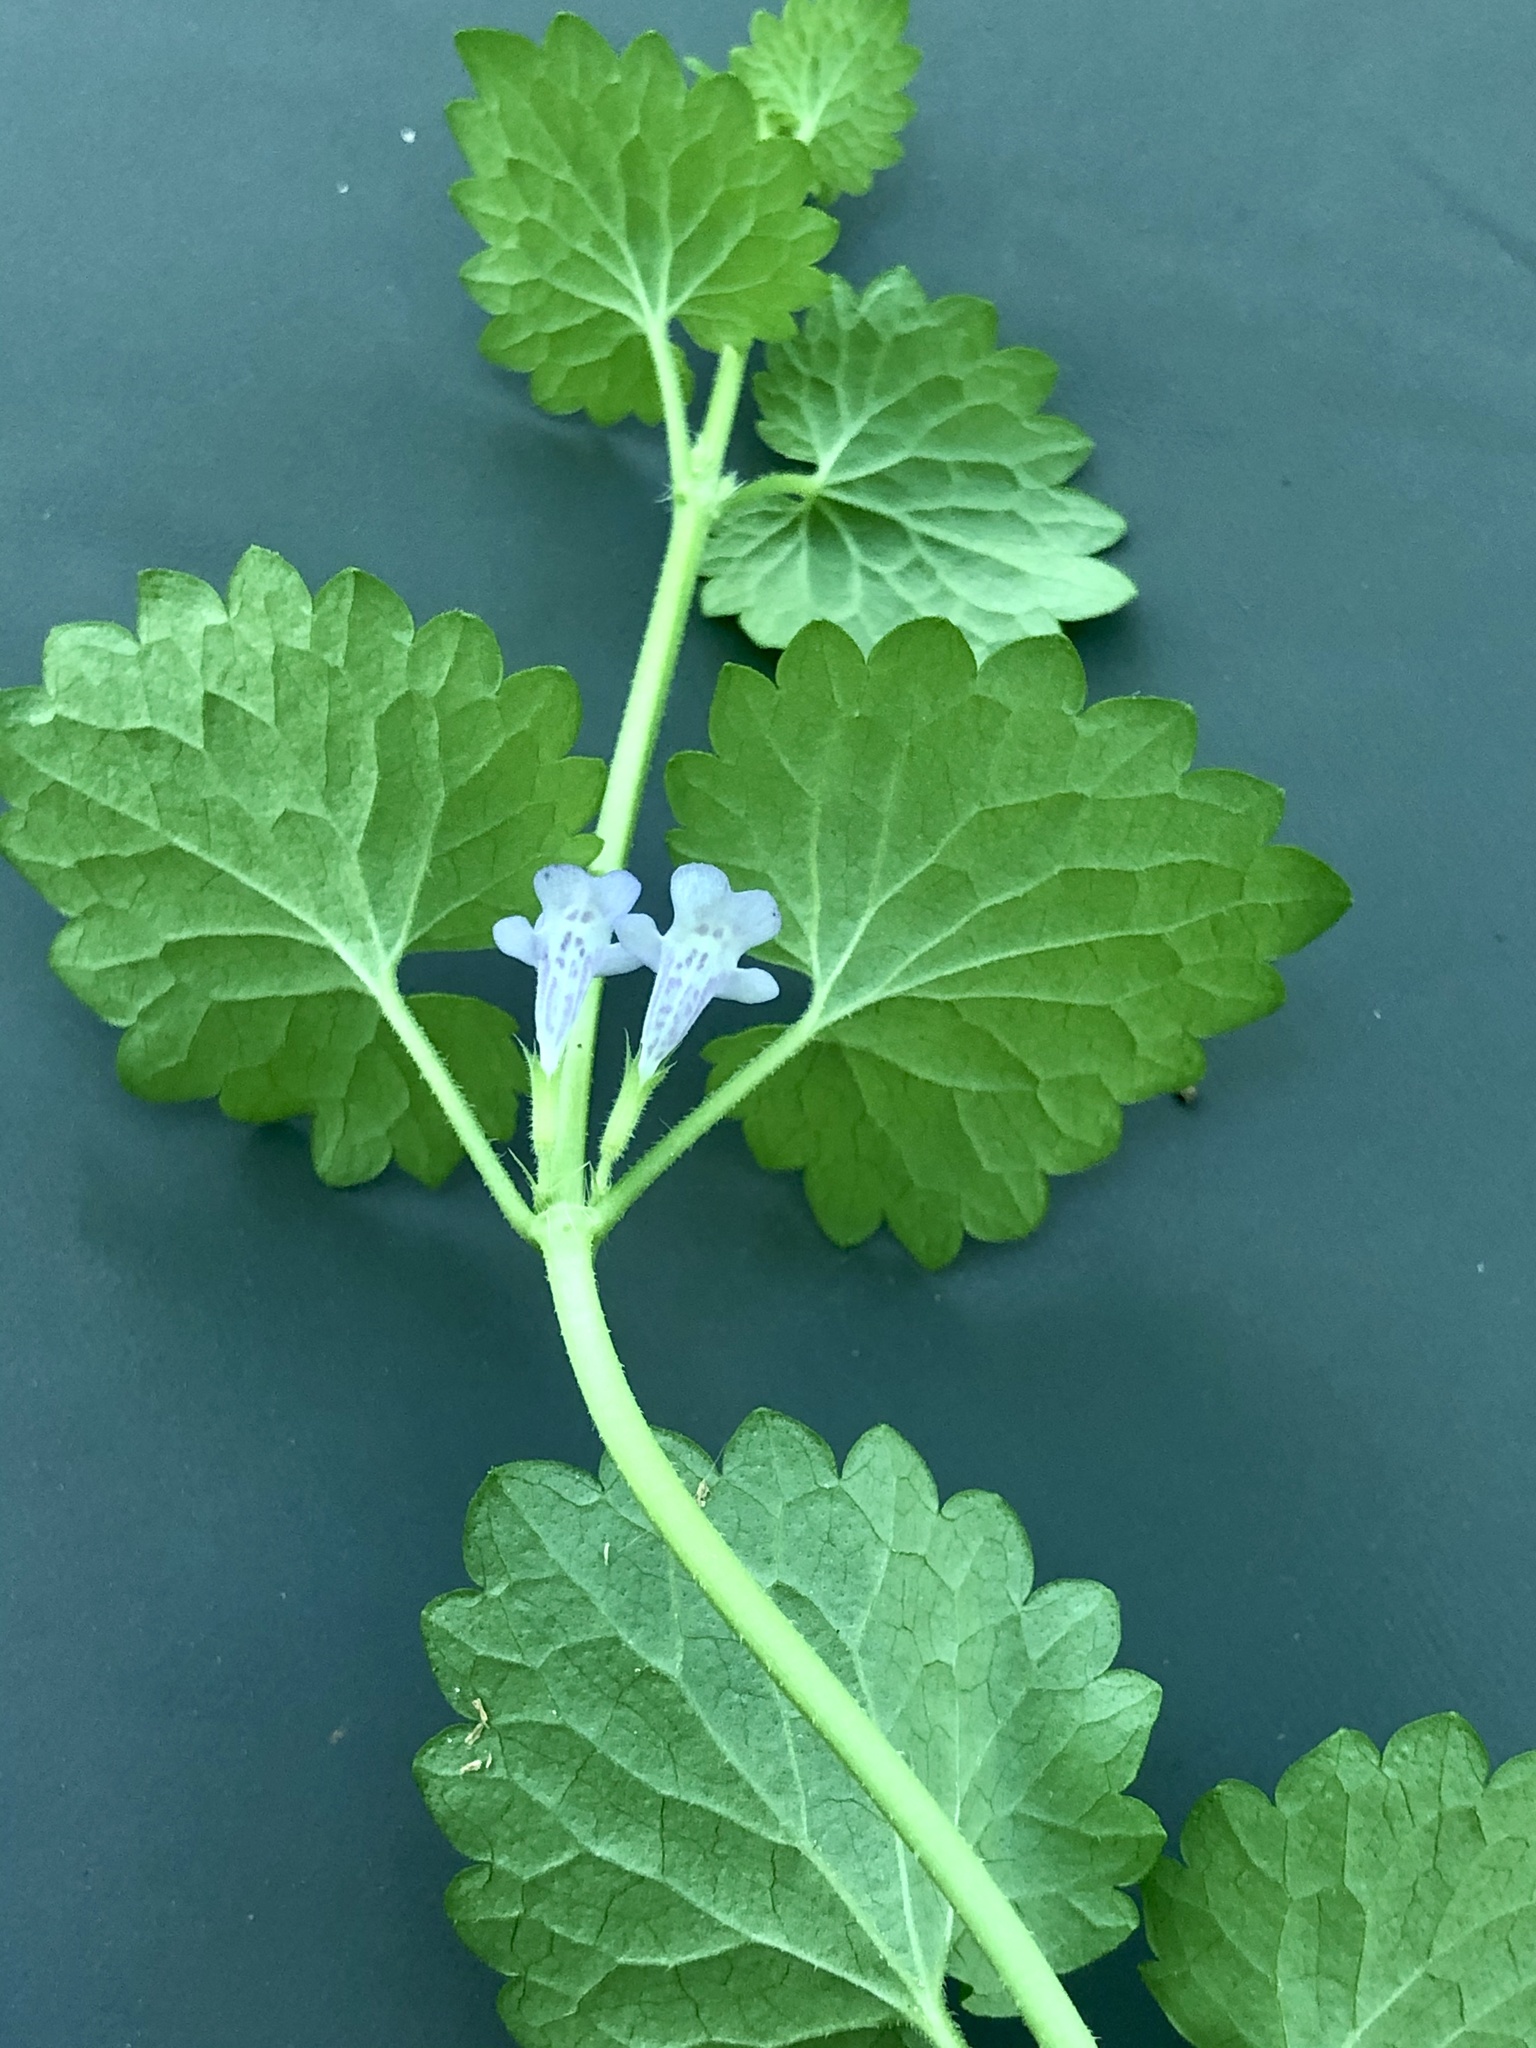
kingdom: Plantae
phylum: Tracheophyta
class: Magnoliopsida
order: Lamiales
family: Lamiaceae
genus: Glechoma
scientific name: Glechoma hederacea
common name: Ground ivy
